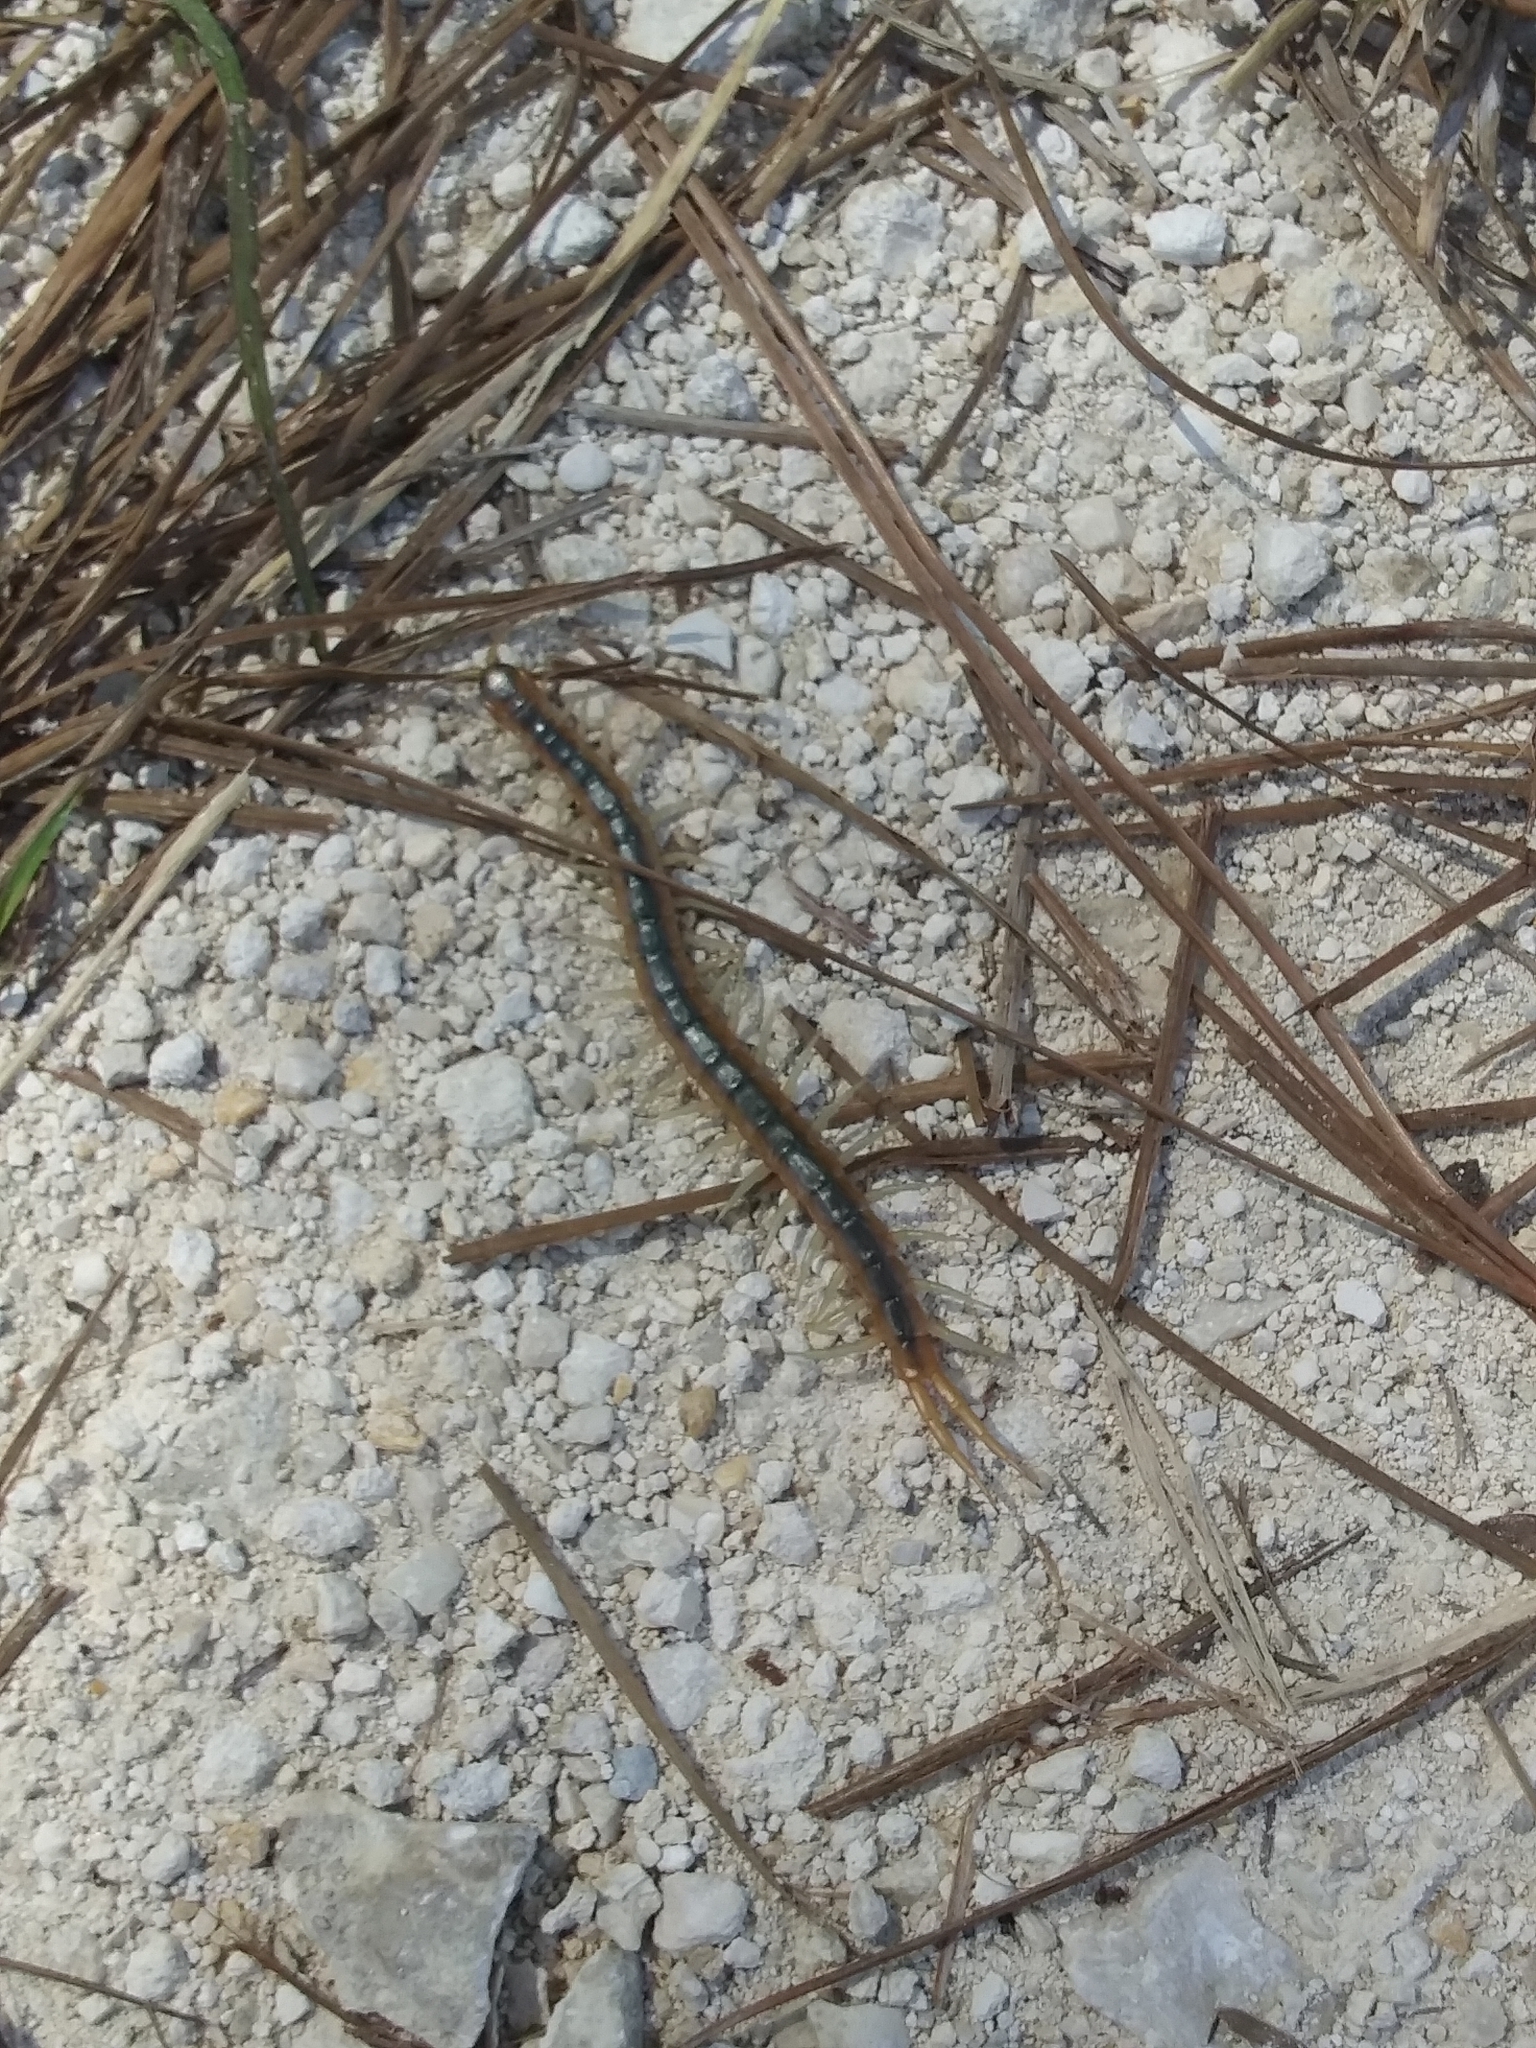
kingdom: Animalia
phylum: Arthropoda
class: Chilopoda
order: Scolopendromorpha
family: Scolopendridae
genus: Scolopendra
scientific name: Scolopendra viridis
